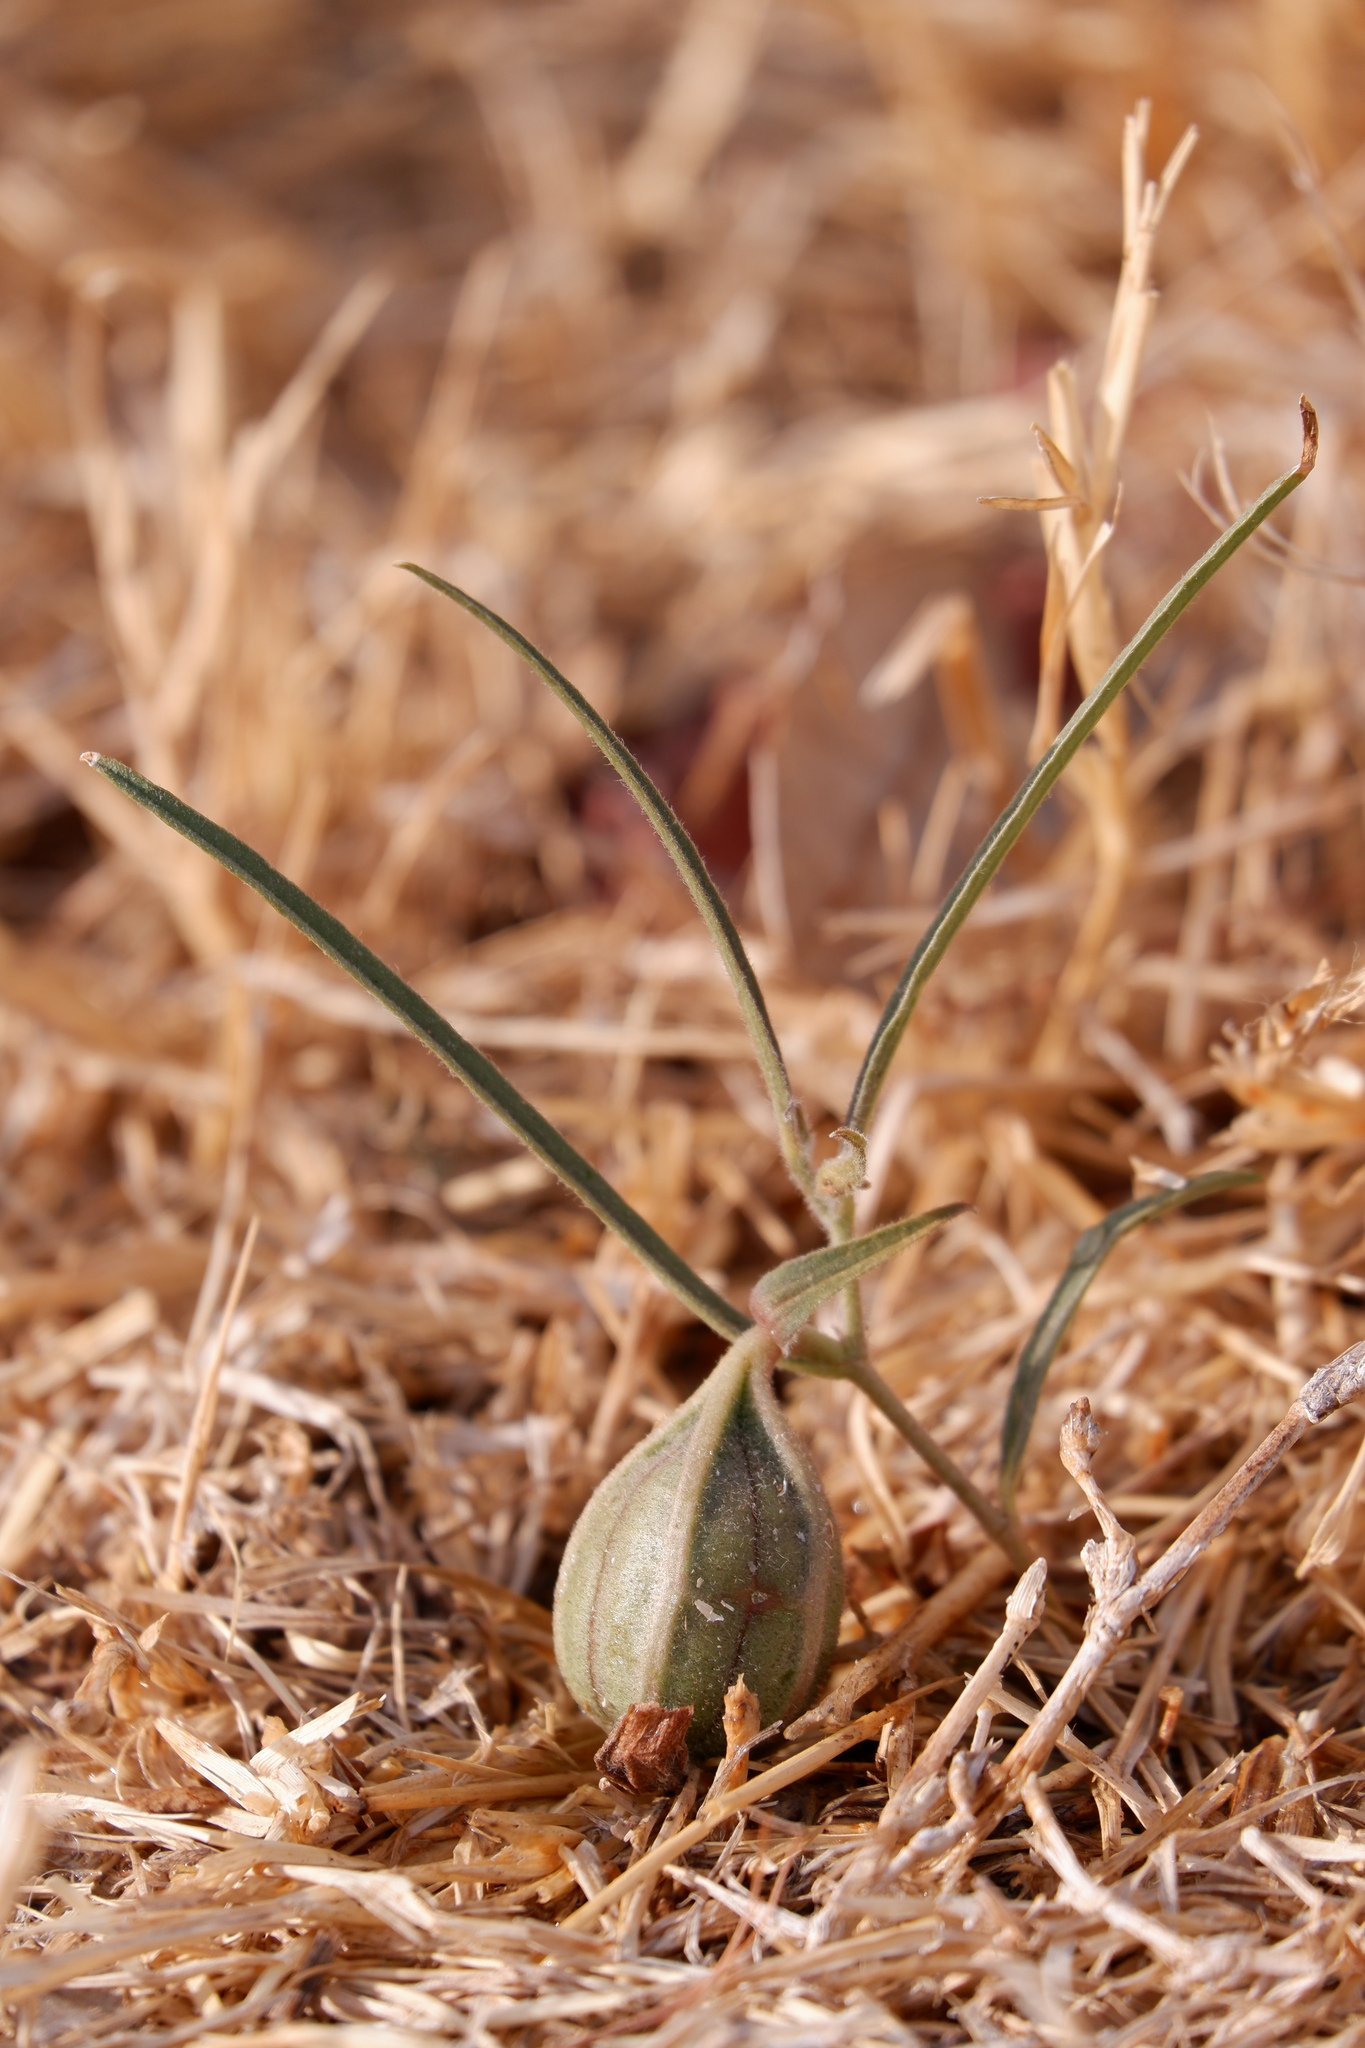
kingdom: Plantae
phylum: Tracheophyta
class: Magnoliopsida
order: Piperales
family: Aristolochiaceae
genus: Aristolochia
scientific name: Aristolochia erecta
